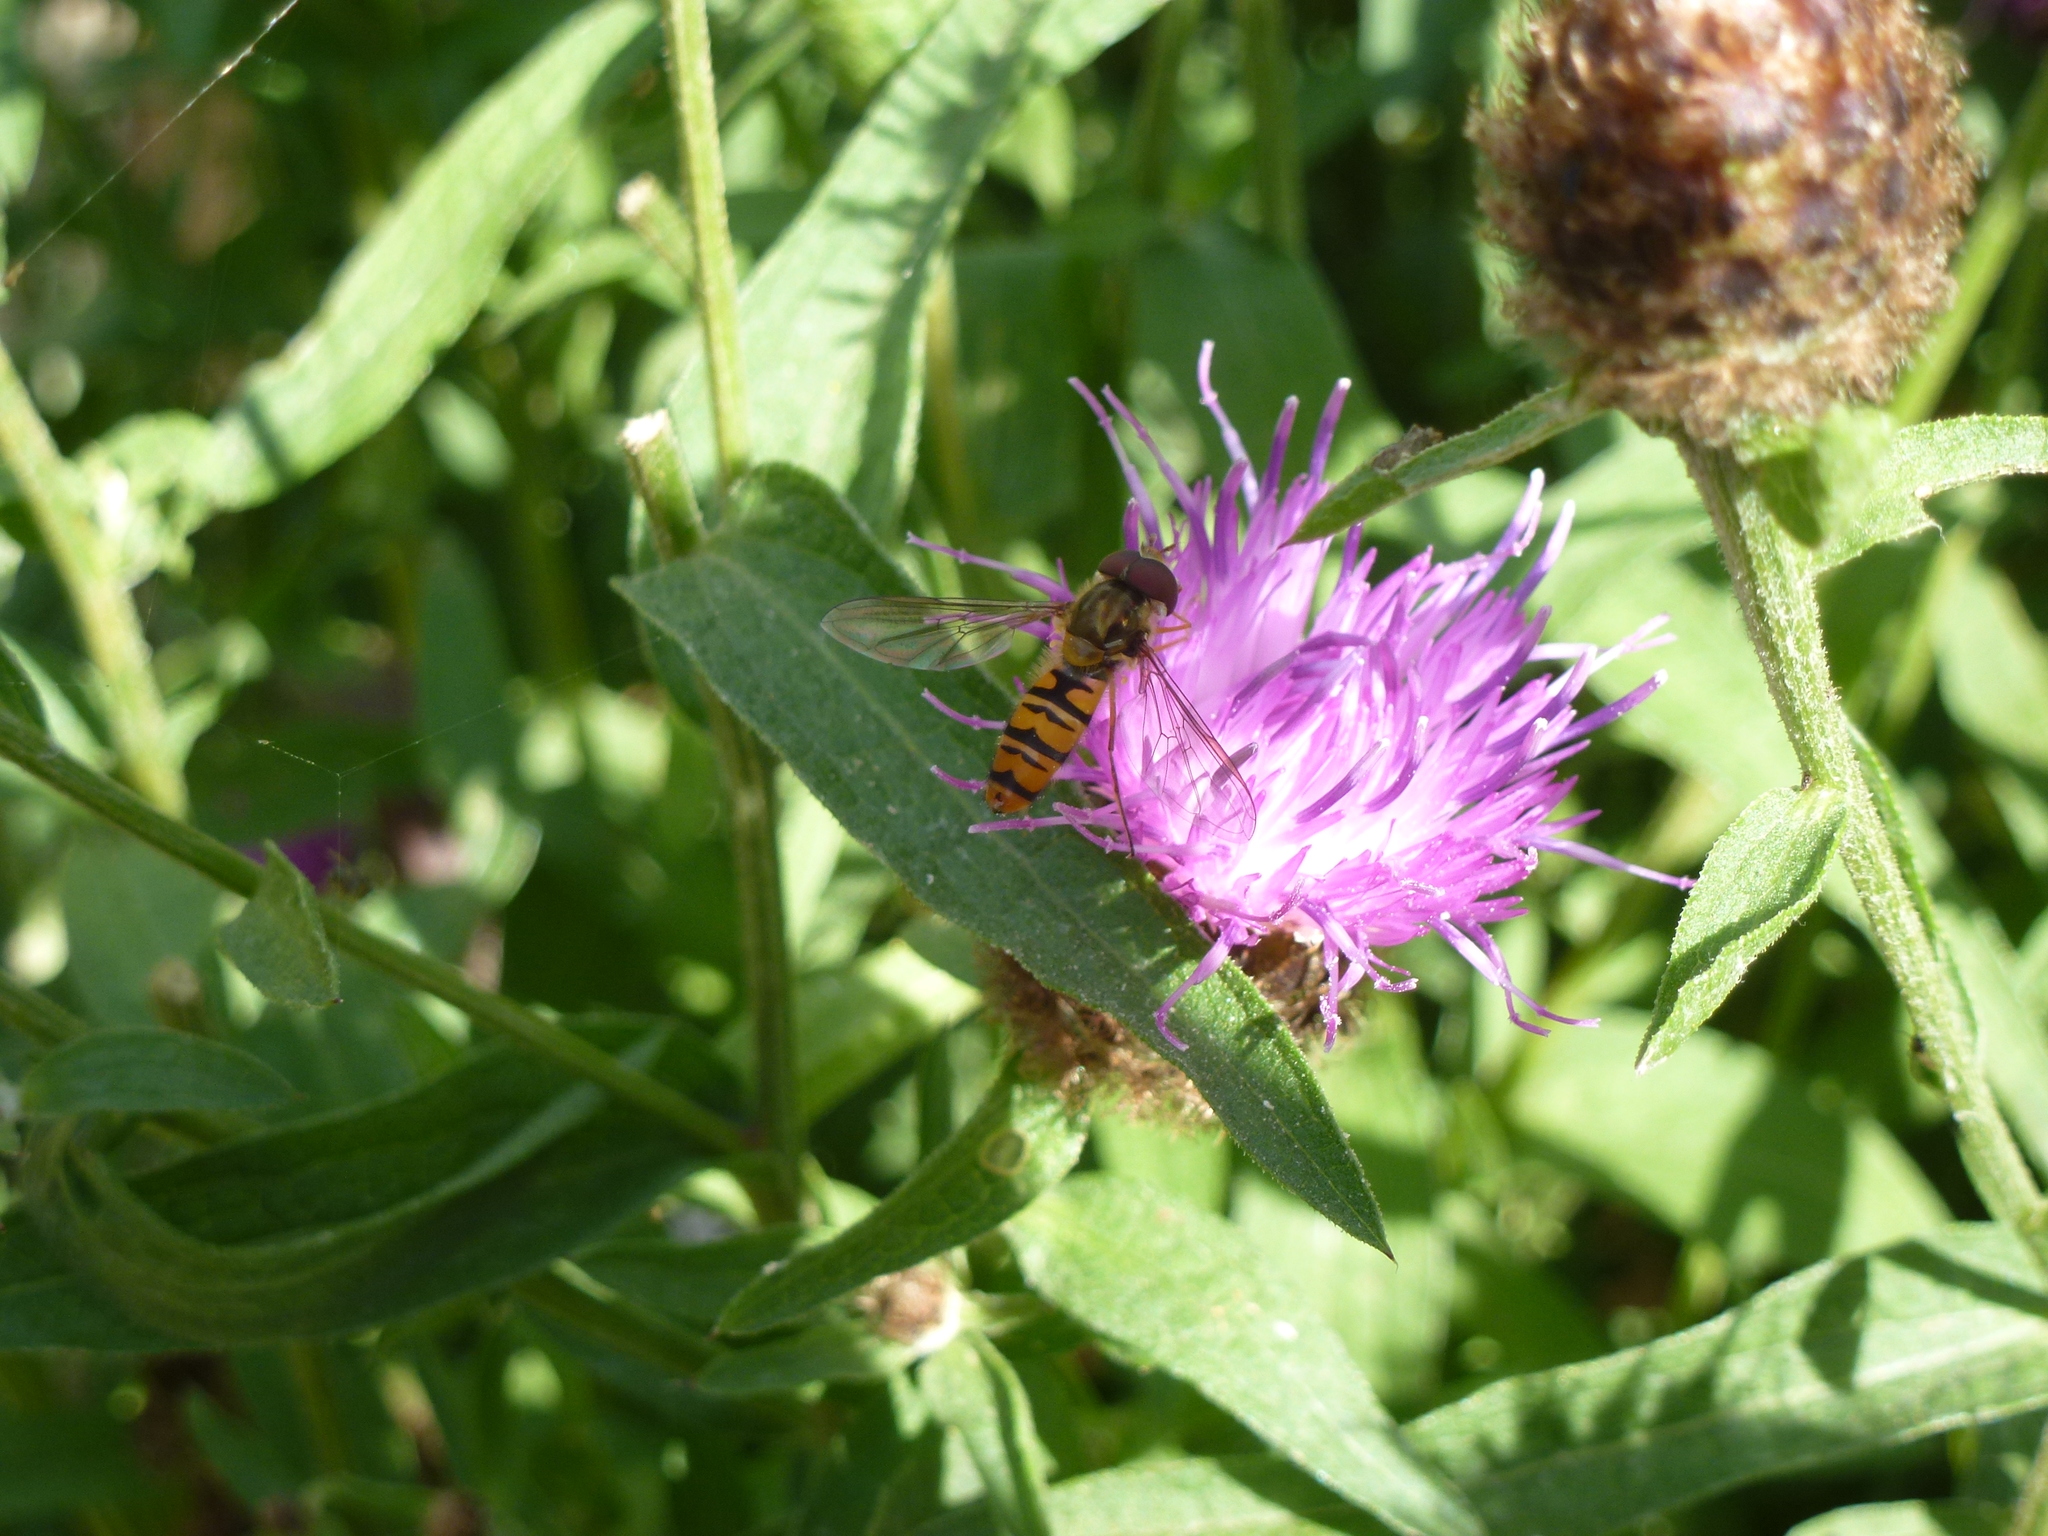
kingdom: Animalia
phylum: Arthropoda
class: Insecta
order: Diptera
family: Syrphidae
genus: Episyrphus
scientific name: Episyrphus balteatus
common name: Marmalade hoverfly
